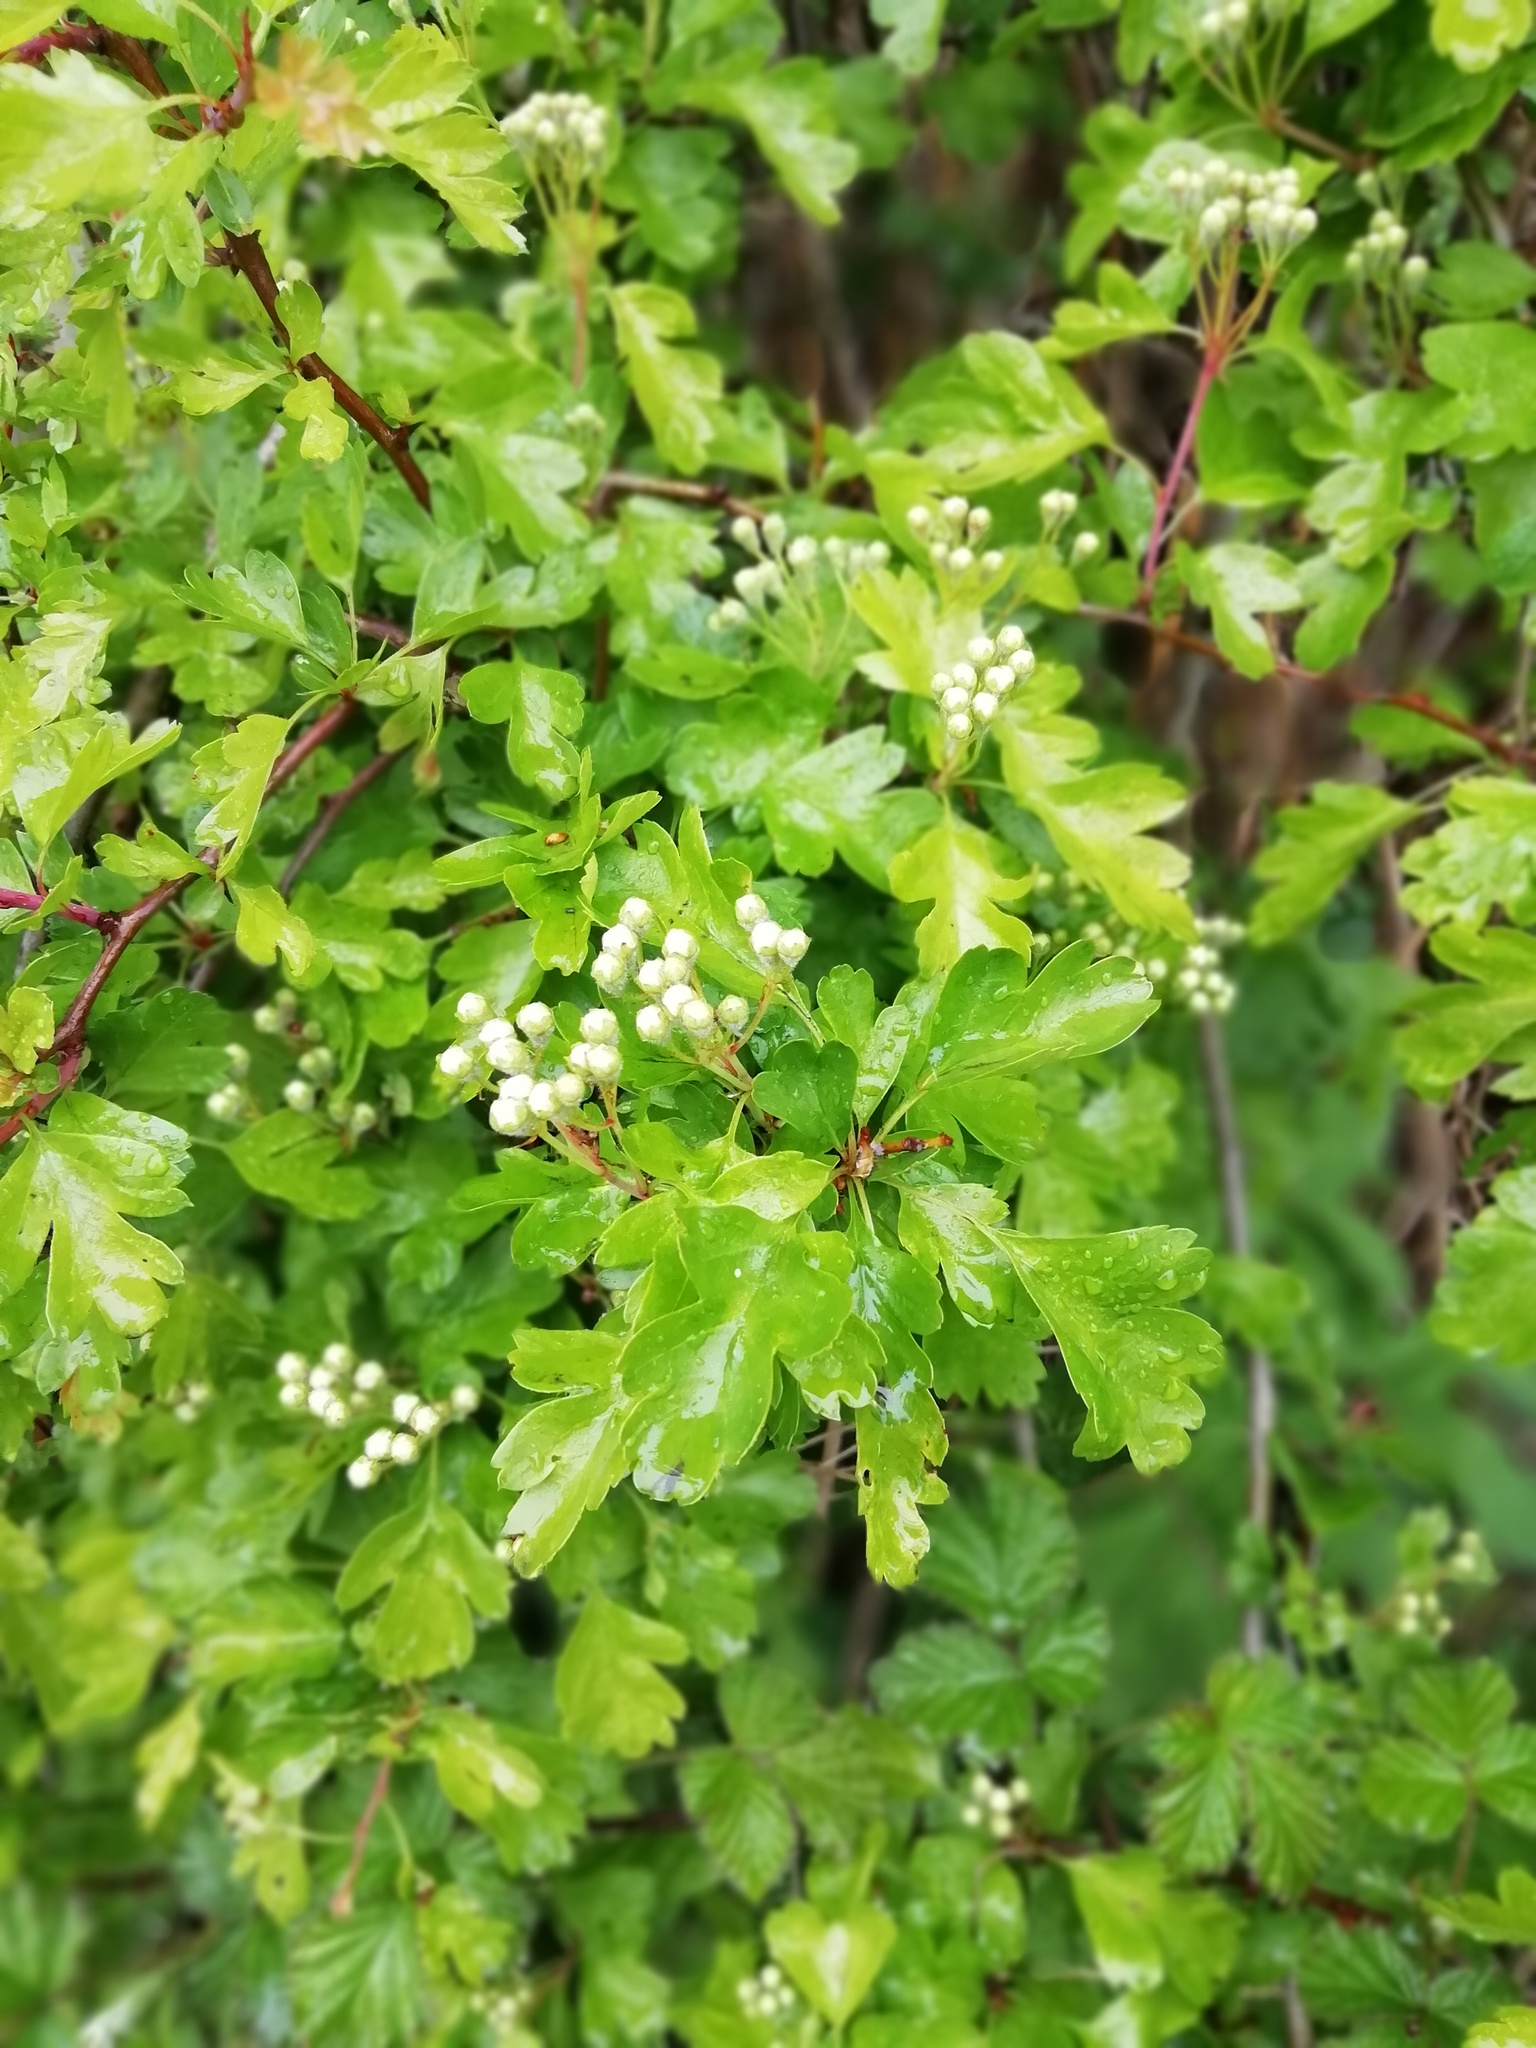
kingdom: Plantae
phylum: Tracheophyta
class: Magnoliopsida
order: Rosales
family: Rosaceae
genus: Crataegus
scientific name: Crataegus monogyna
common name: Hawthorn
